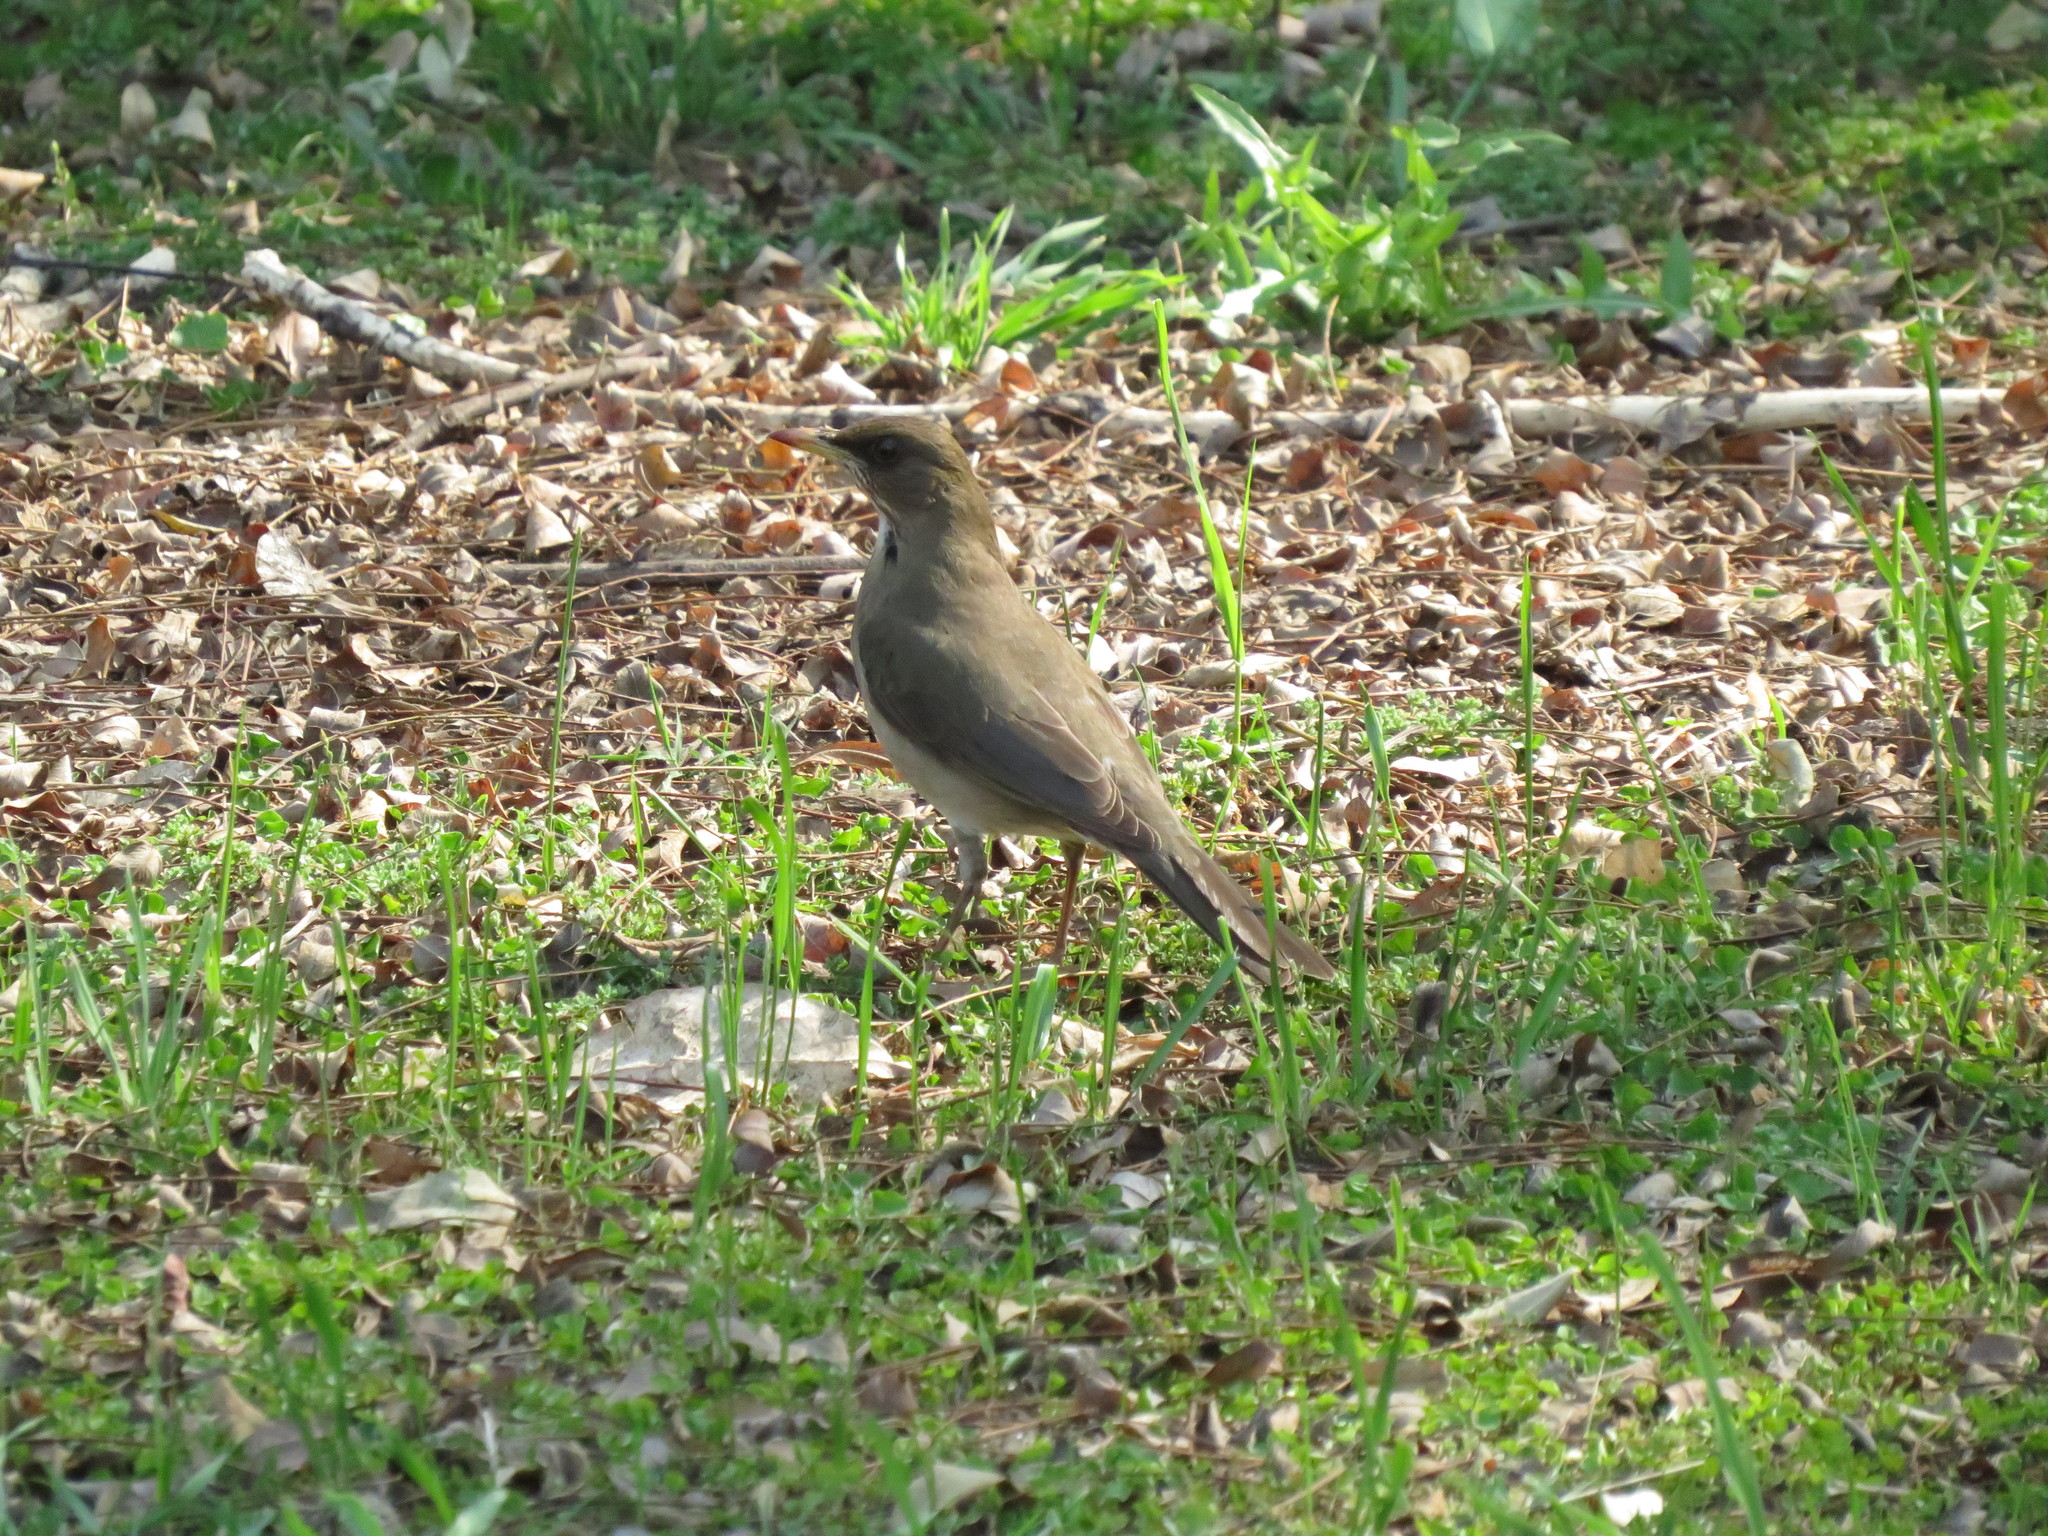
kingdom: Animalia
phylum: Chordata
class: Aves
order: Passeriformes
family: Turdidae
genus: Turdus
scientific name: Turdus amaurochalinus
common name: Creamy-bellied thrush
